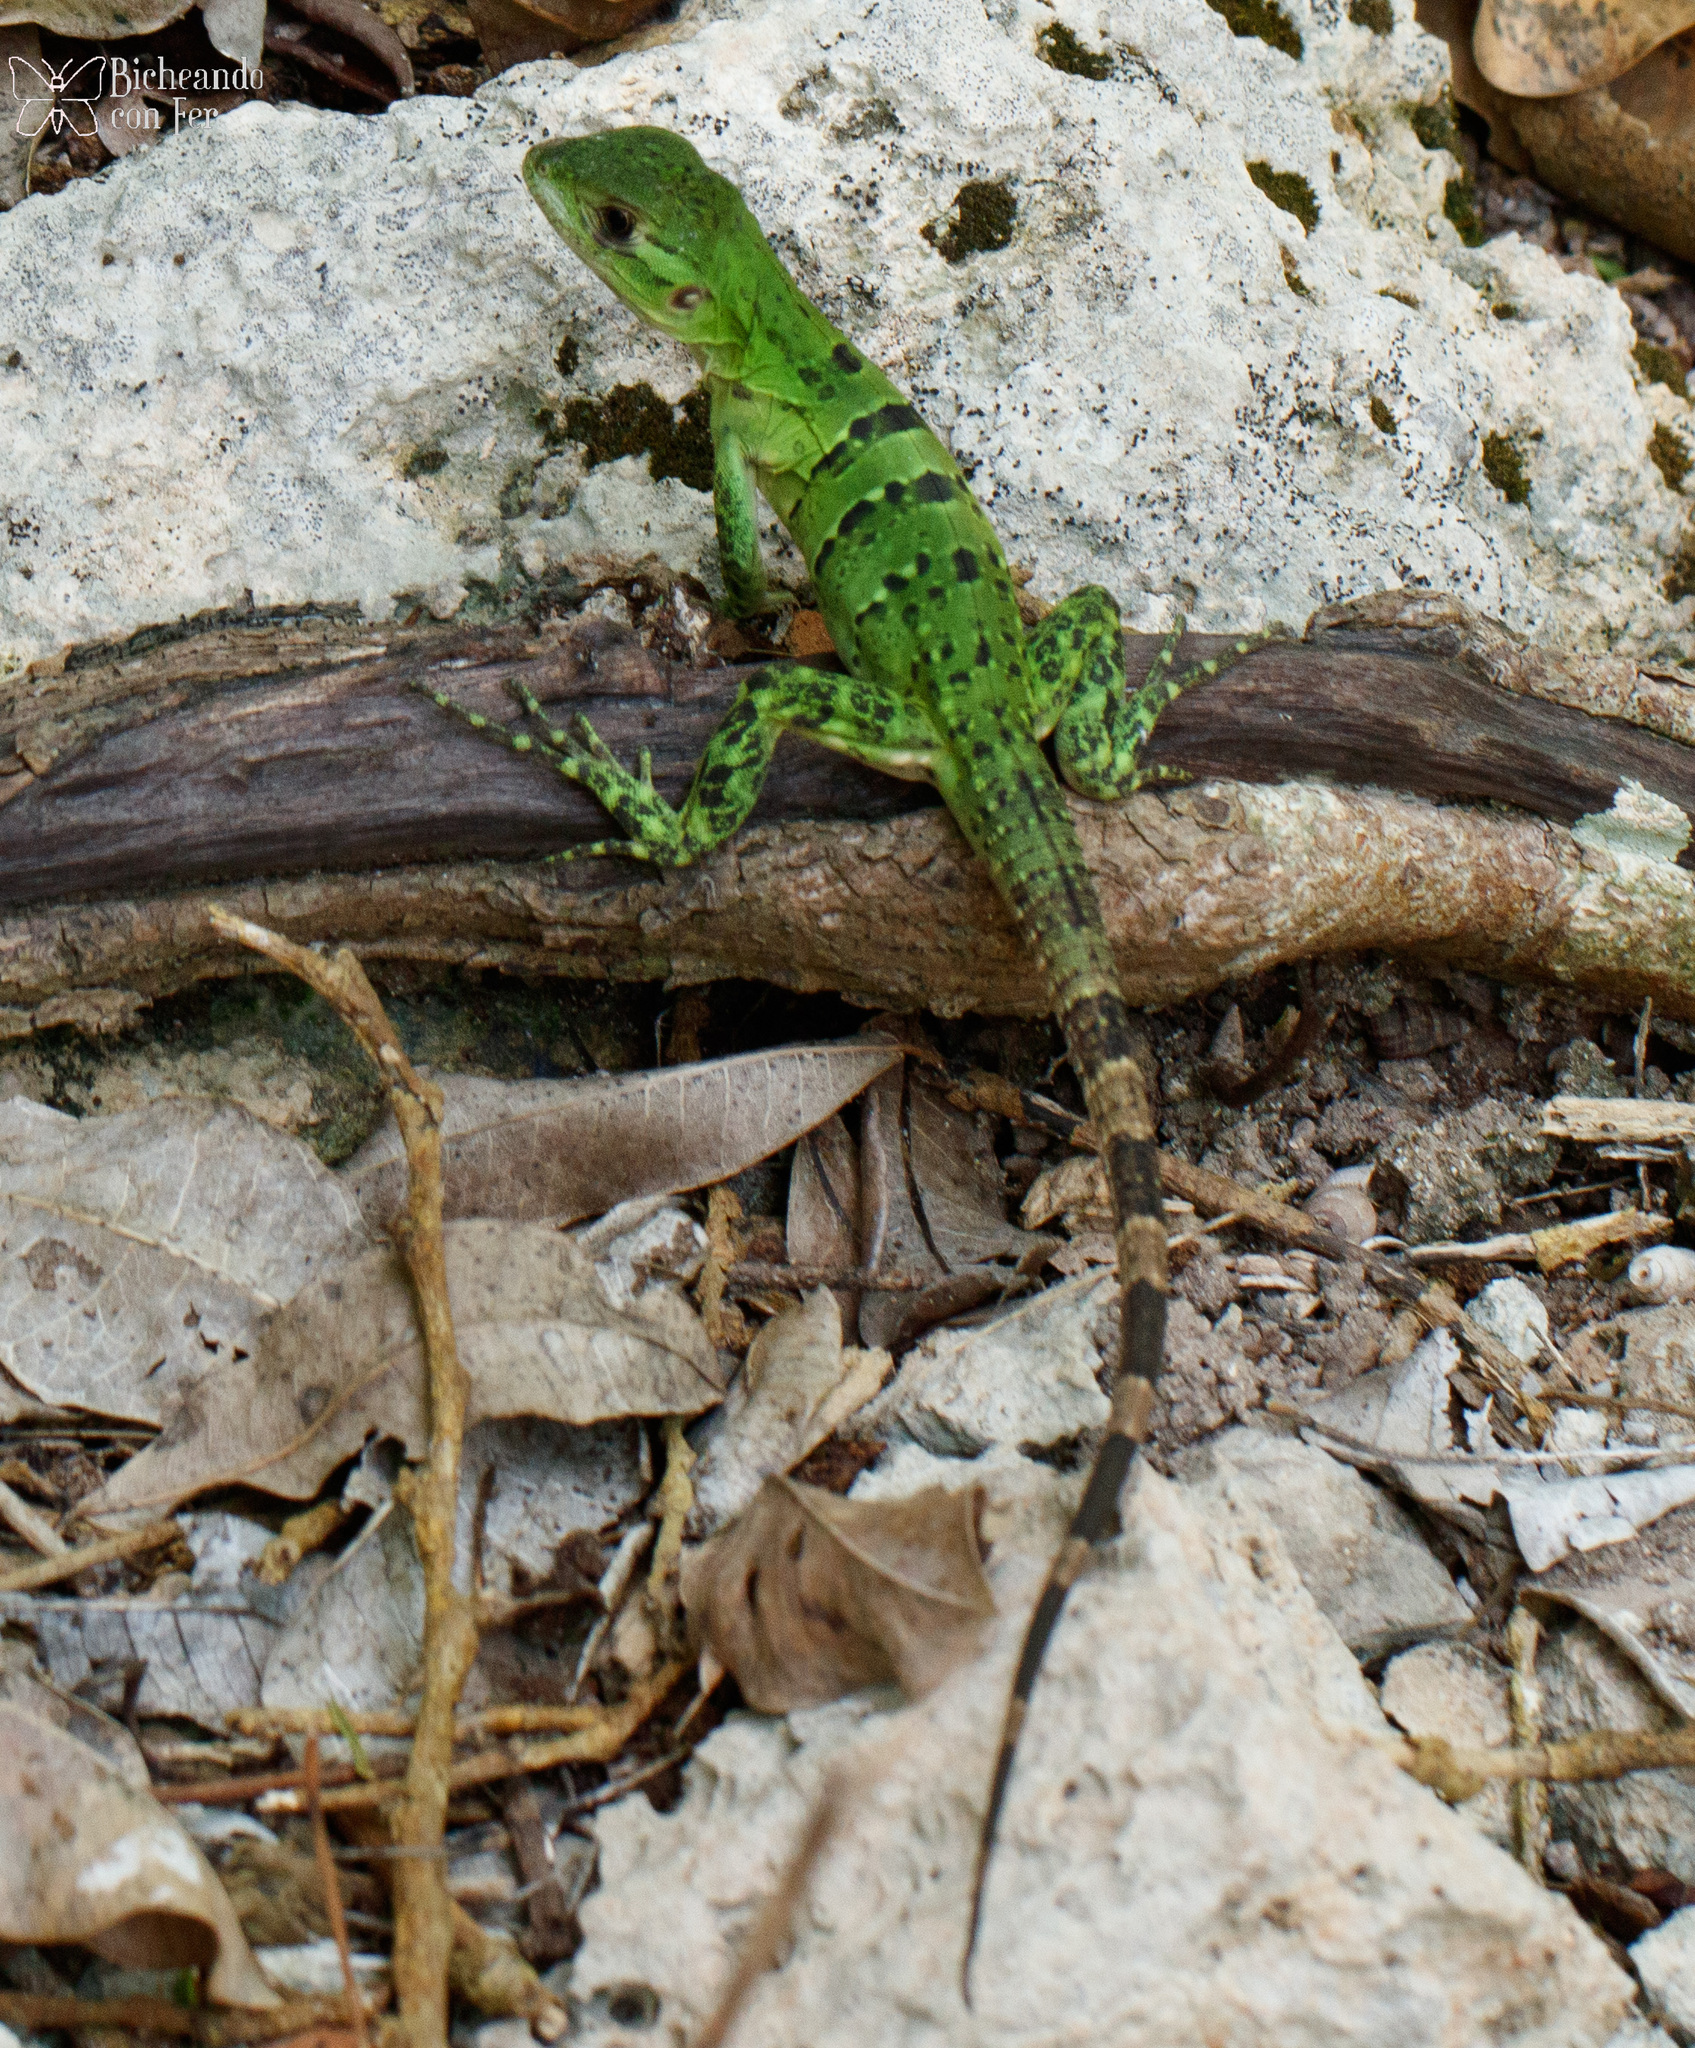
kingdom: Animalia
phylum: Chordata
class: Squamata
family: Iguanidae
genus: Ctenosaura
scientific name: Ctenosaura similis
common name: Black spiny-tailed iguana
